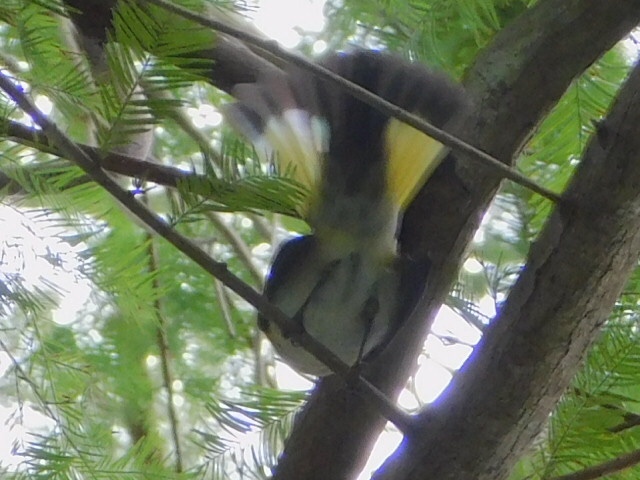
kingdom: Animalia
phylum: Chordata
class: Aves
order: Passeriformes
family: Parulidae
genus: Setophaga
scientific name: Setophaga ruticilla
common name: American redstart
